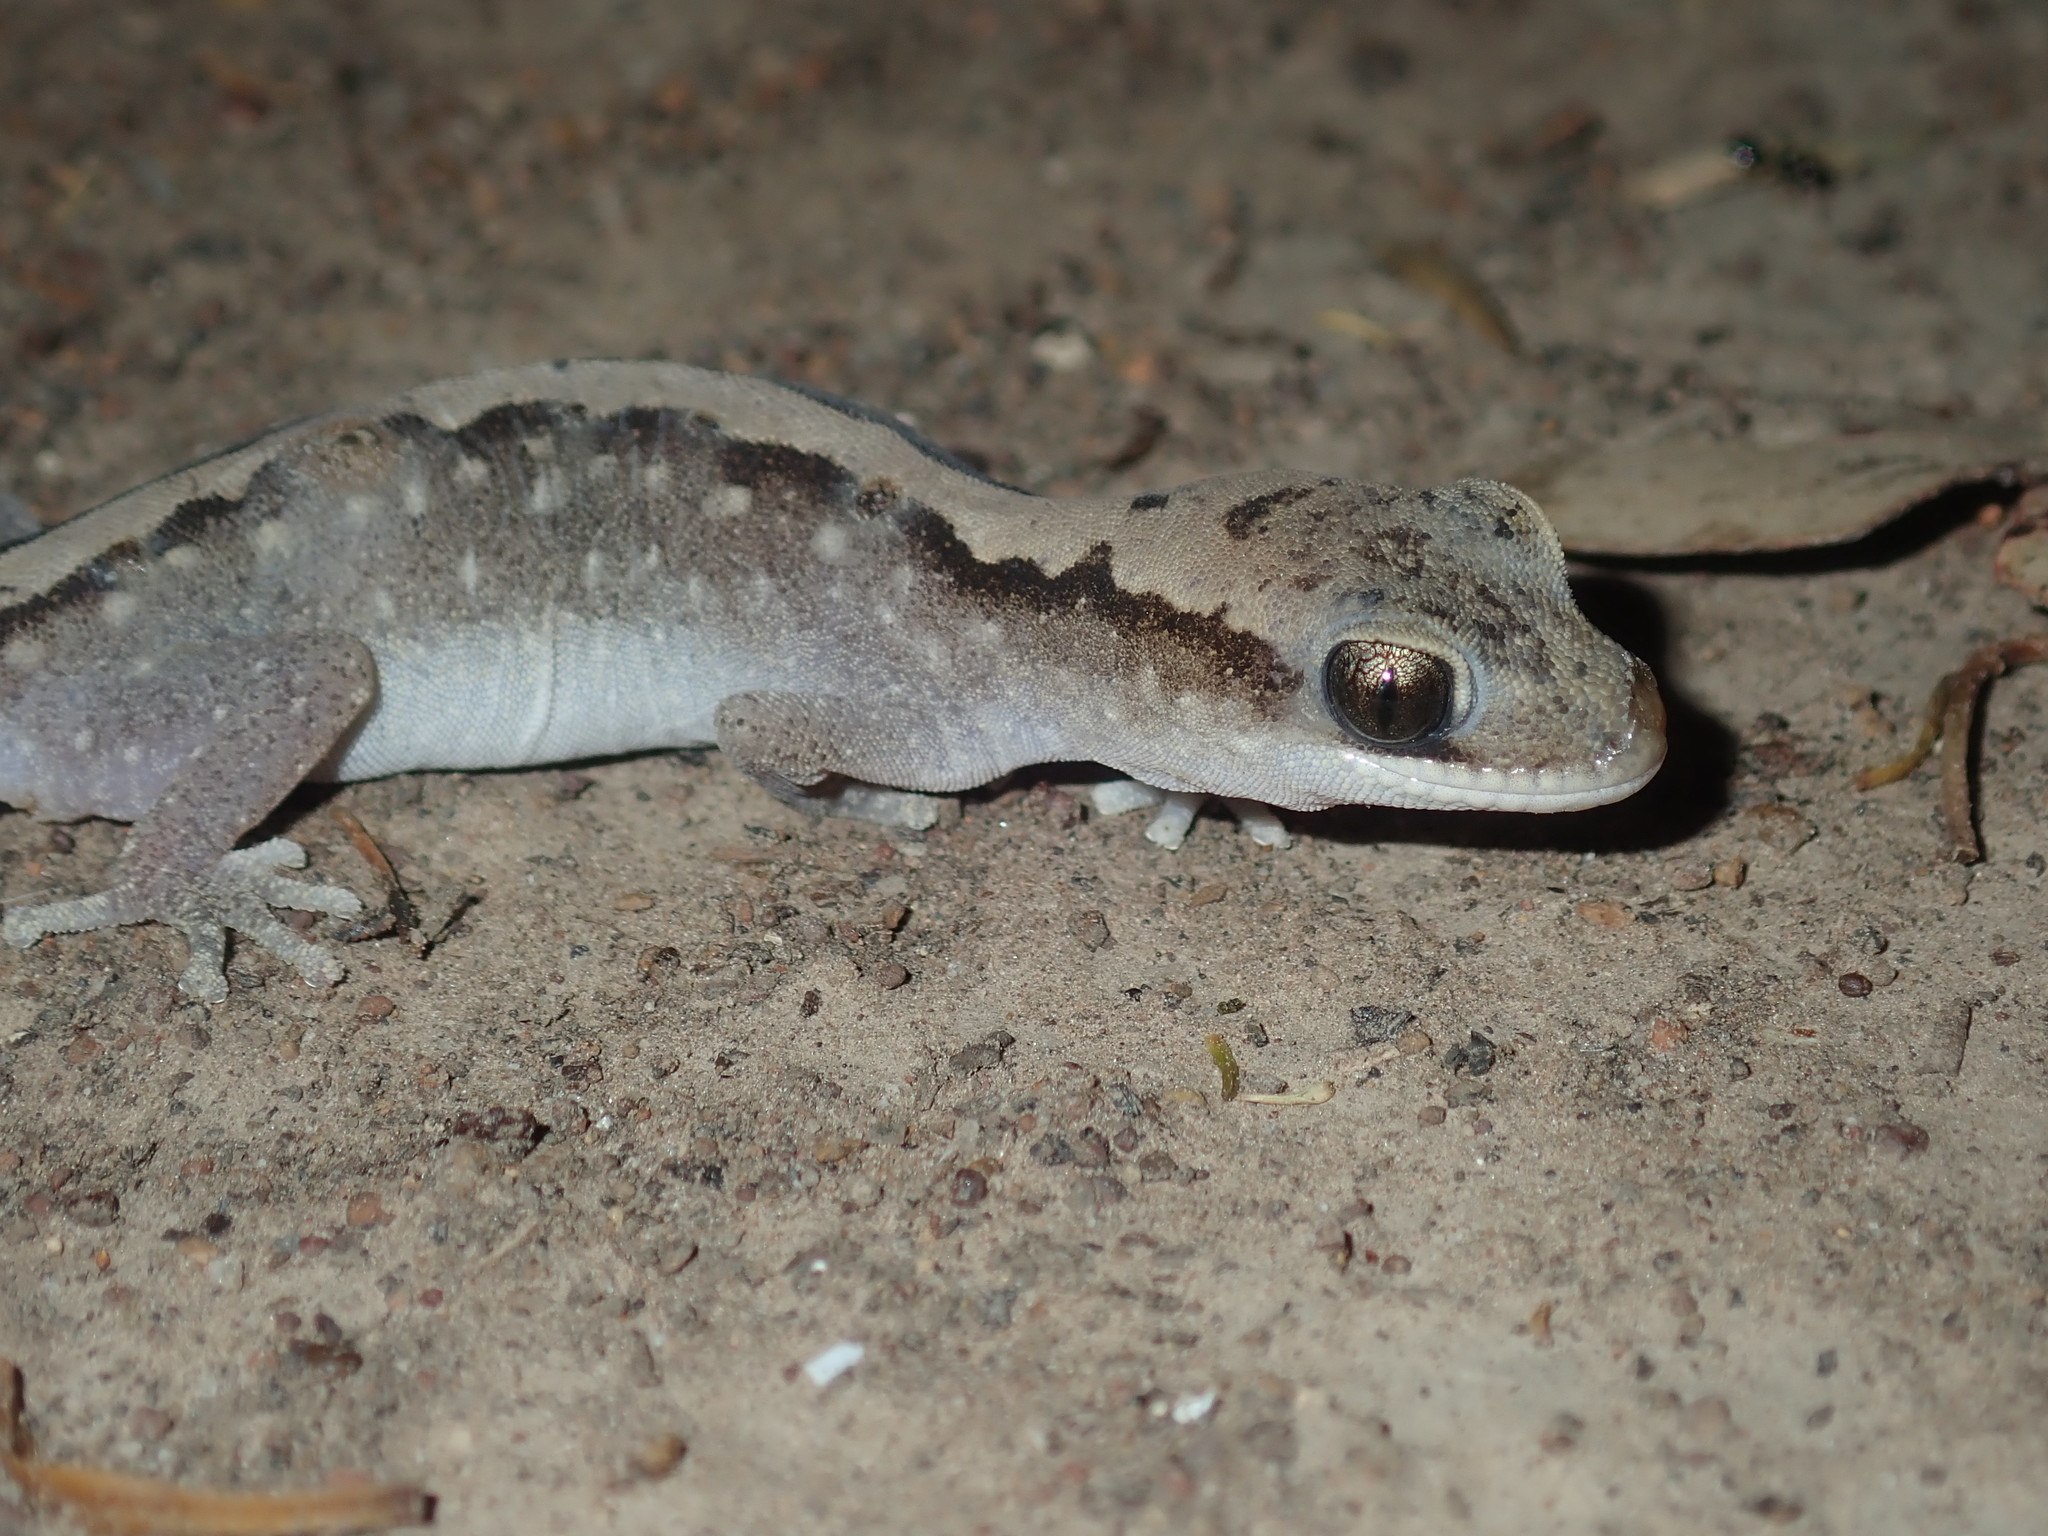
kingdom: Animalia
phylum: Chordata
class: Squamata
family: Diplodactylidae
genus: Diplodactylus
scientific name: Diplodactylus vittatus
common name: Eastern stone gecko
